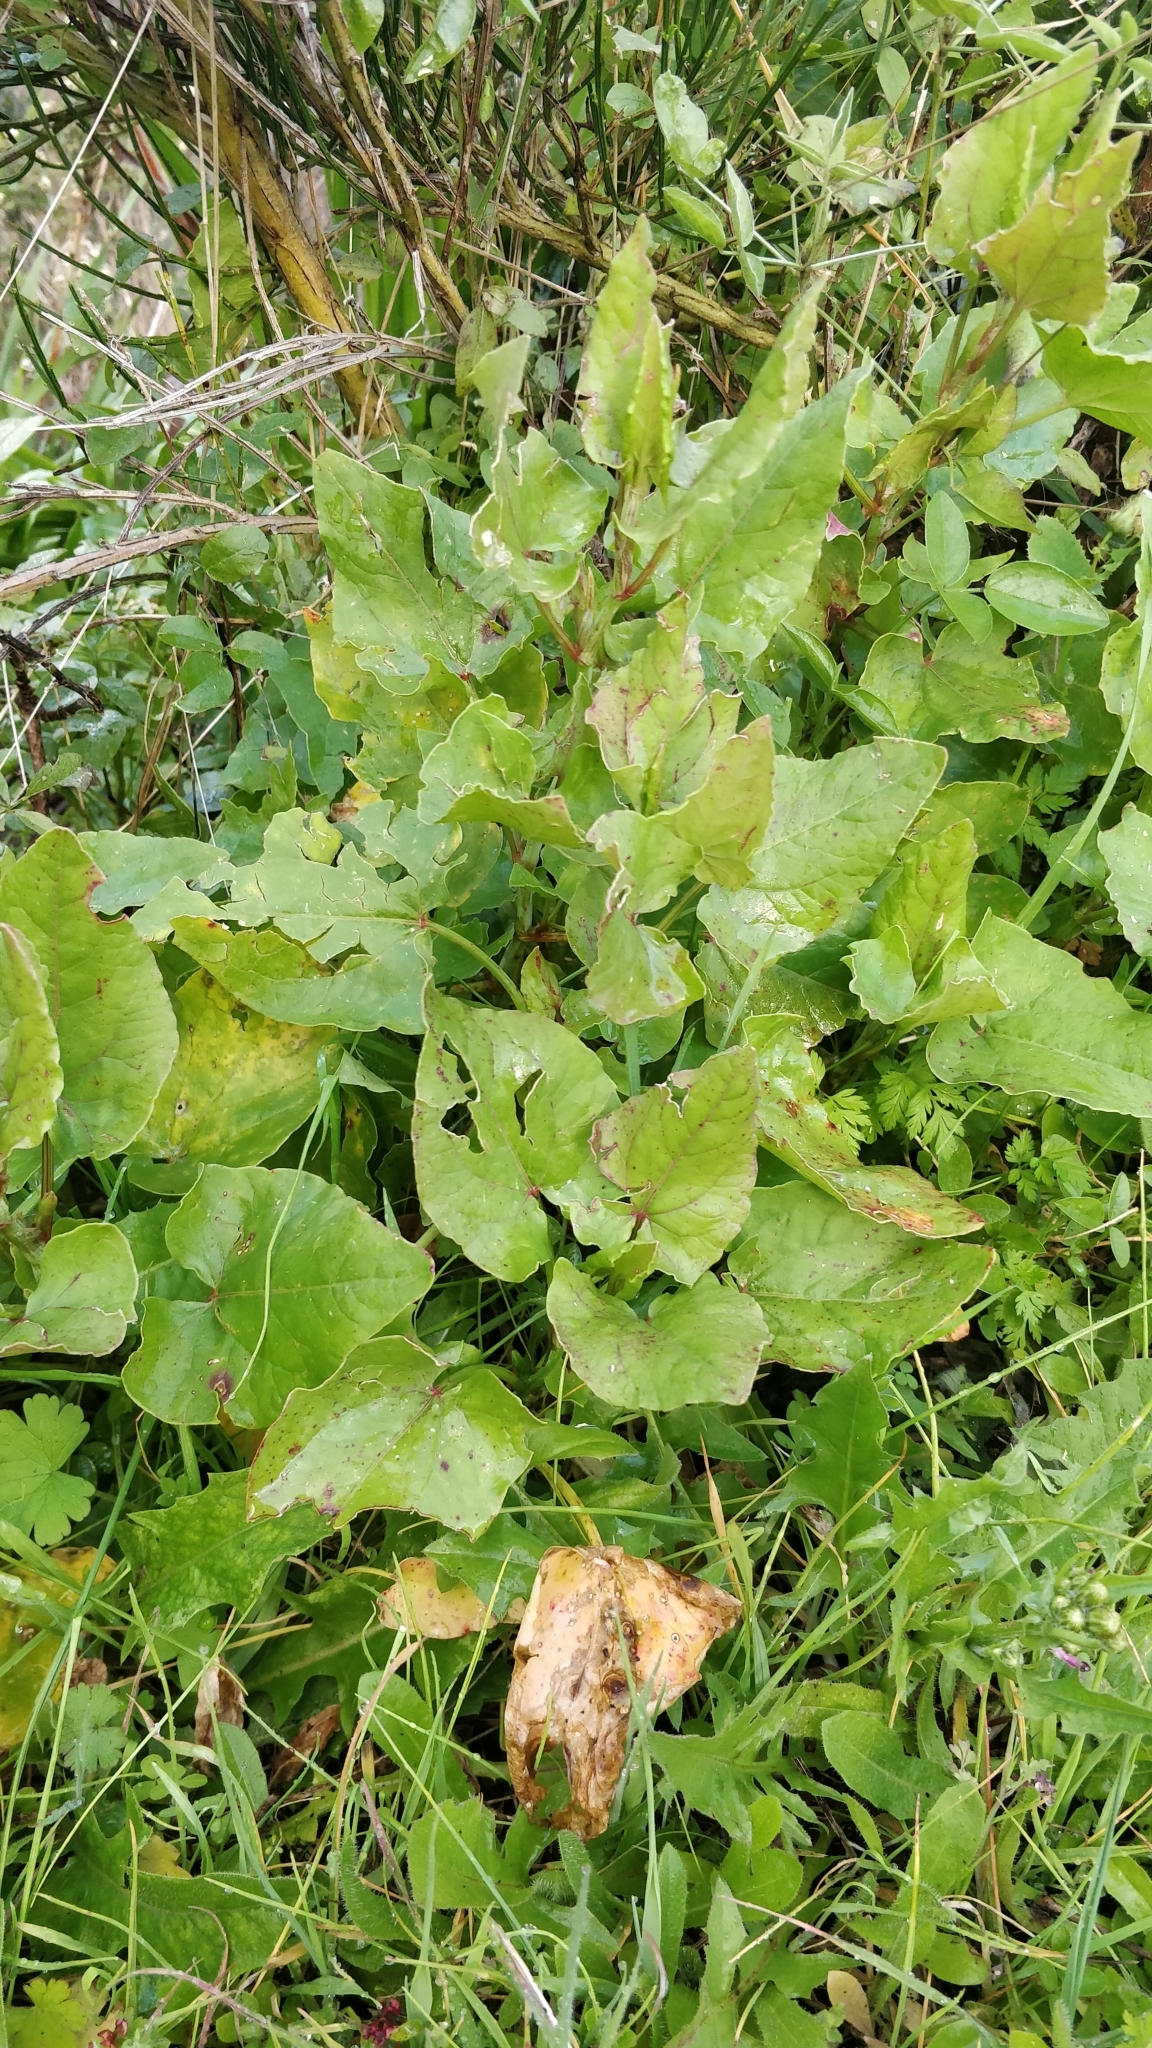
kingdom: Plantae
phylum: Tracheophyta
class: Magnoliopsida
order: Caryophyllales
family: Polygonaceae
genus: Rumex
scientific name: Rumex maderensis
